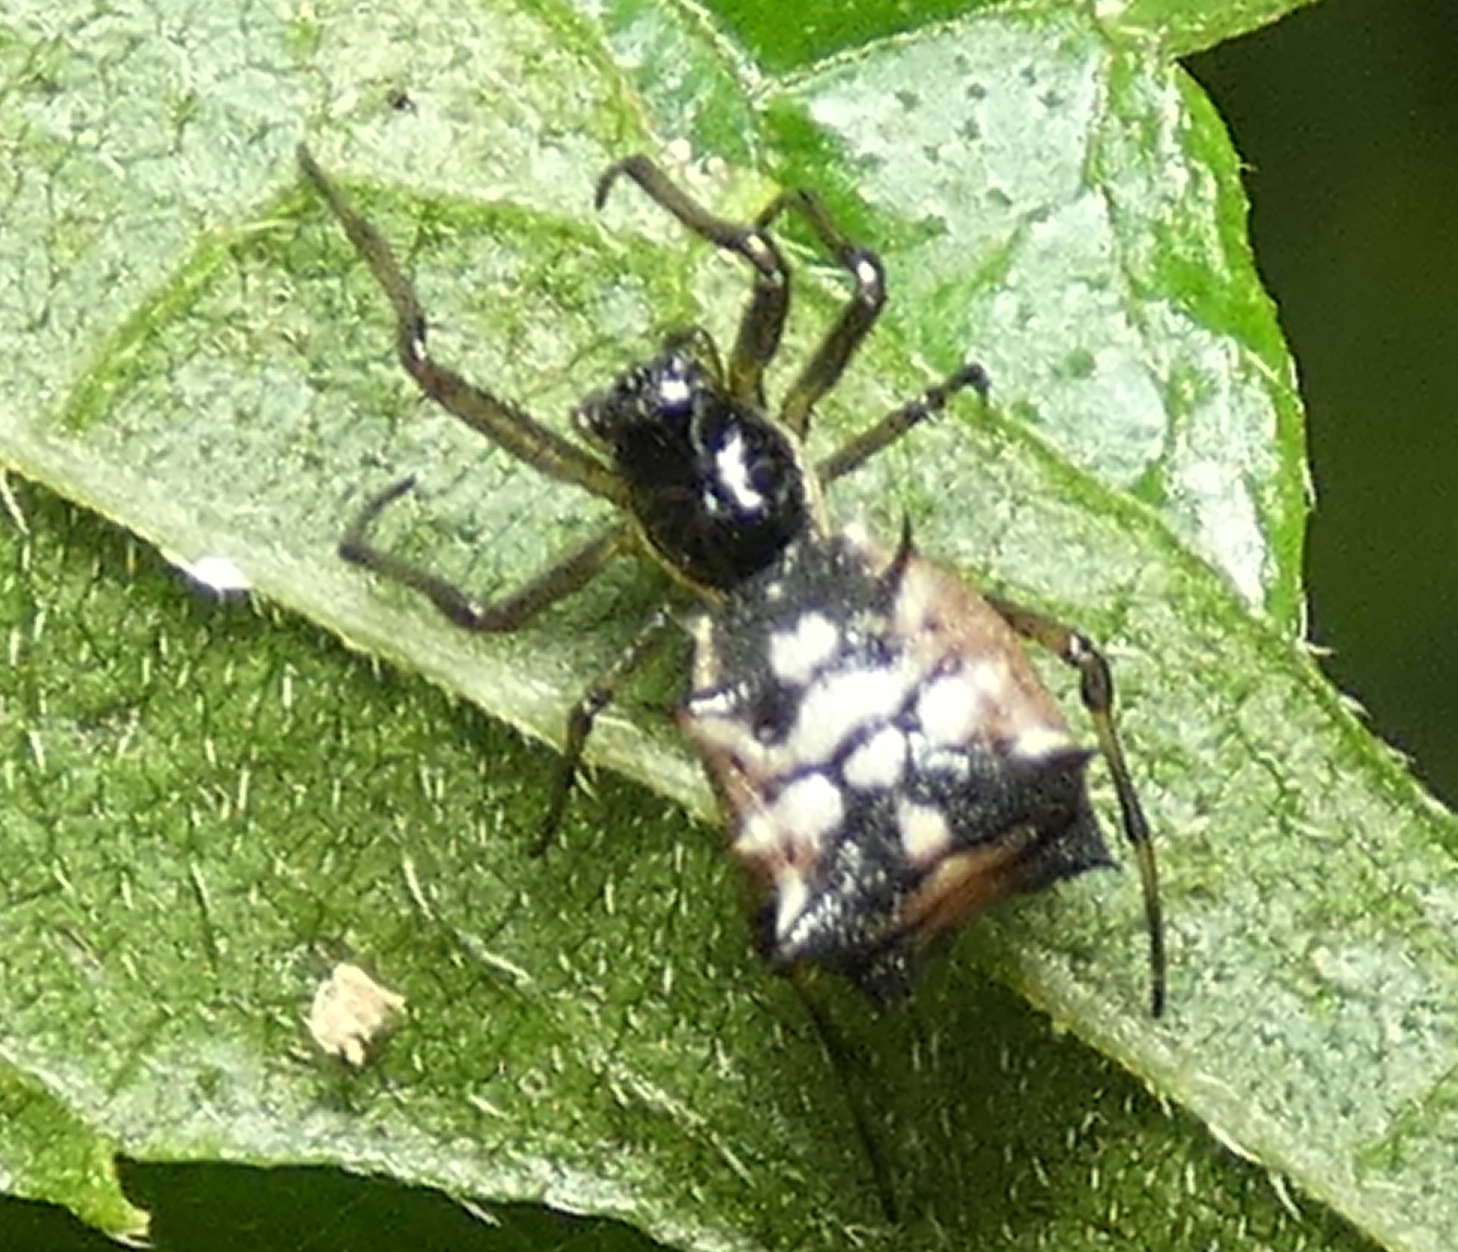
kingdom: Animalia
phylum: Arthropoda
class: Arachnida
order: Araneae
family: Araneidae
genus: Micrathena
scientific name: Micrathena picta
